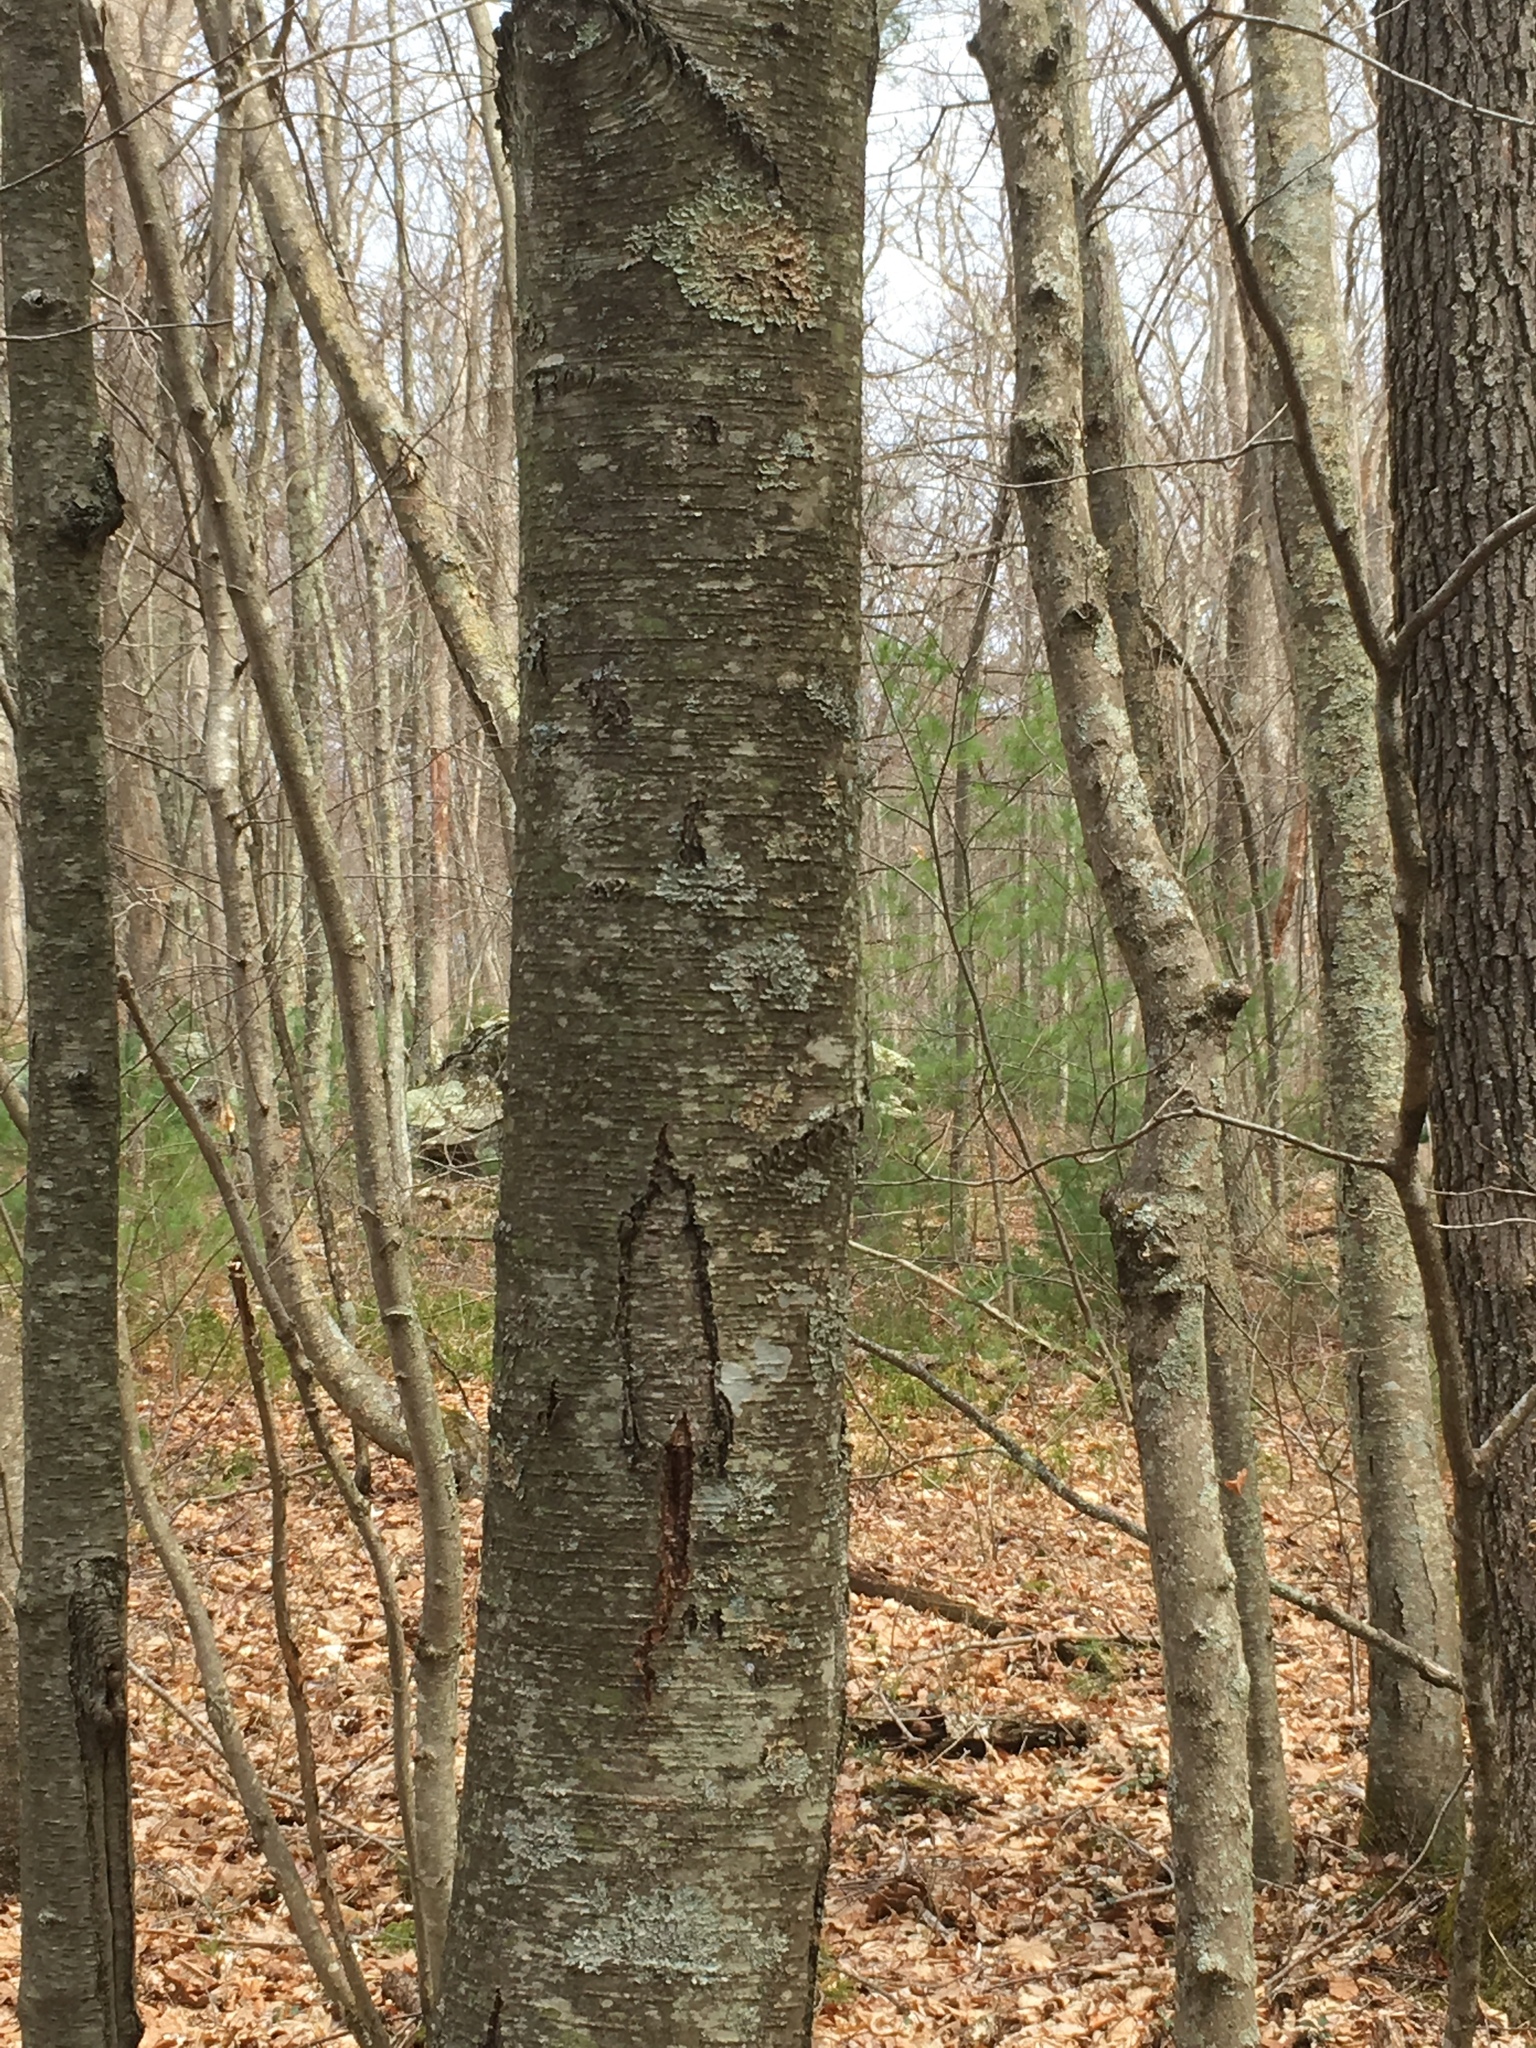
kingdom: Plantae
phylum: Tracheophyta
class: Magnoliopsida
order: Fagales
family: Betulaceae
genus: Betula
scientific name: Betula lenta
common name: Black birch
